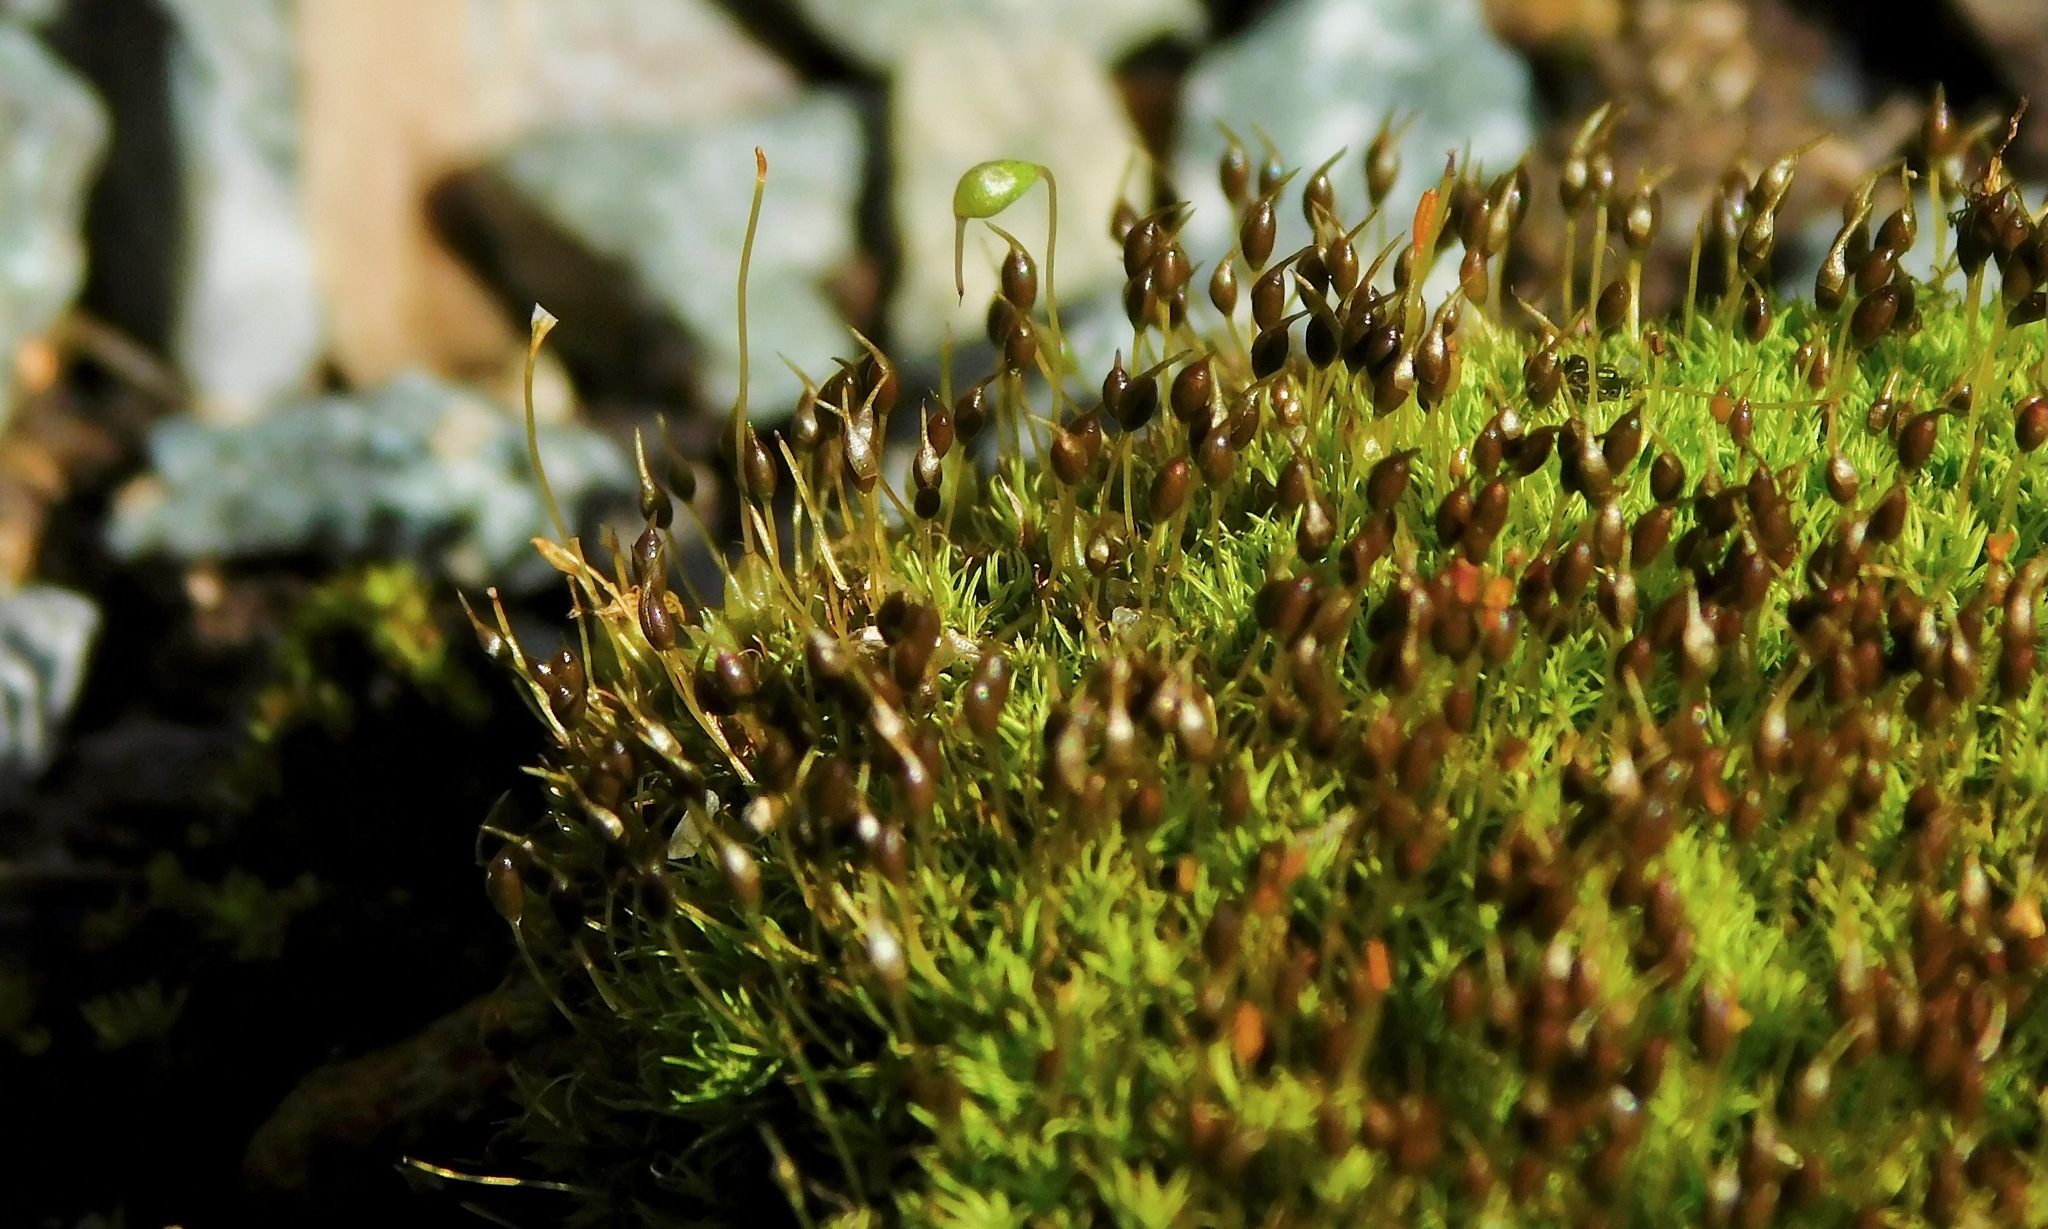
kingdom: Plantae
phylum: Bryophyta
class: Bryopsida
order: Pottiales
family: Pottiaceae
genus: Weissia
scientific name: Weissia controversa
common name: Green-tufted stubble moss
